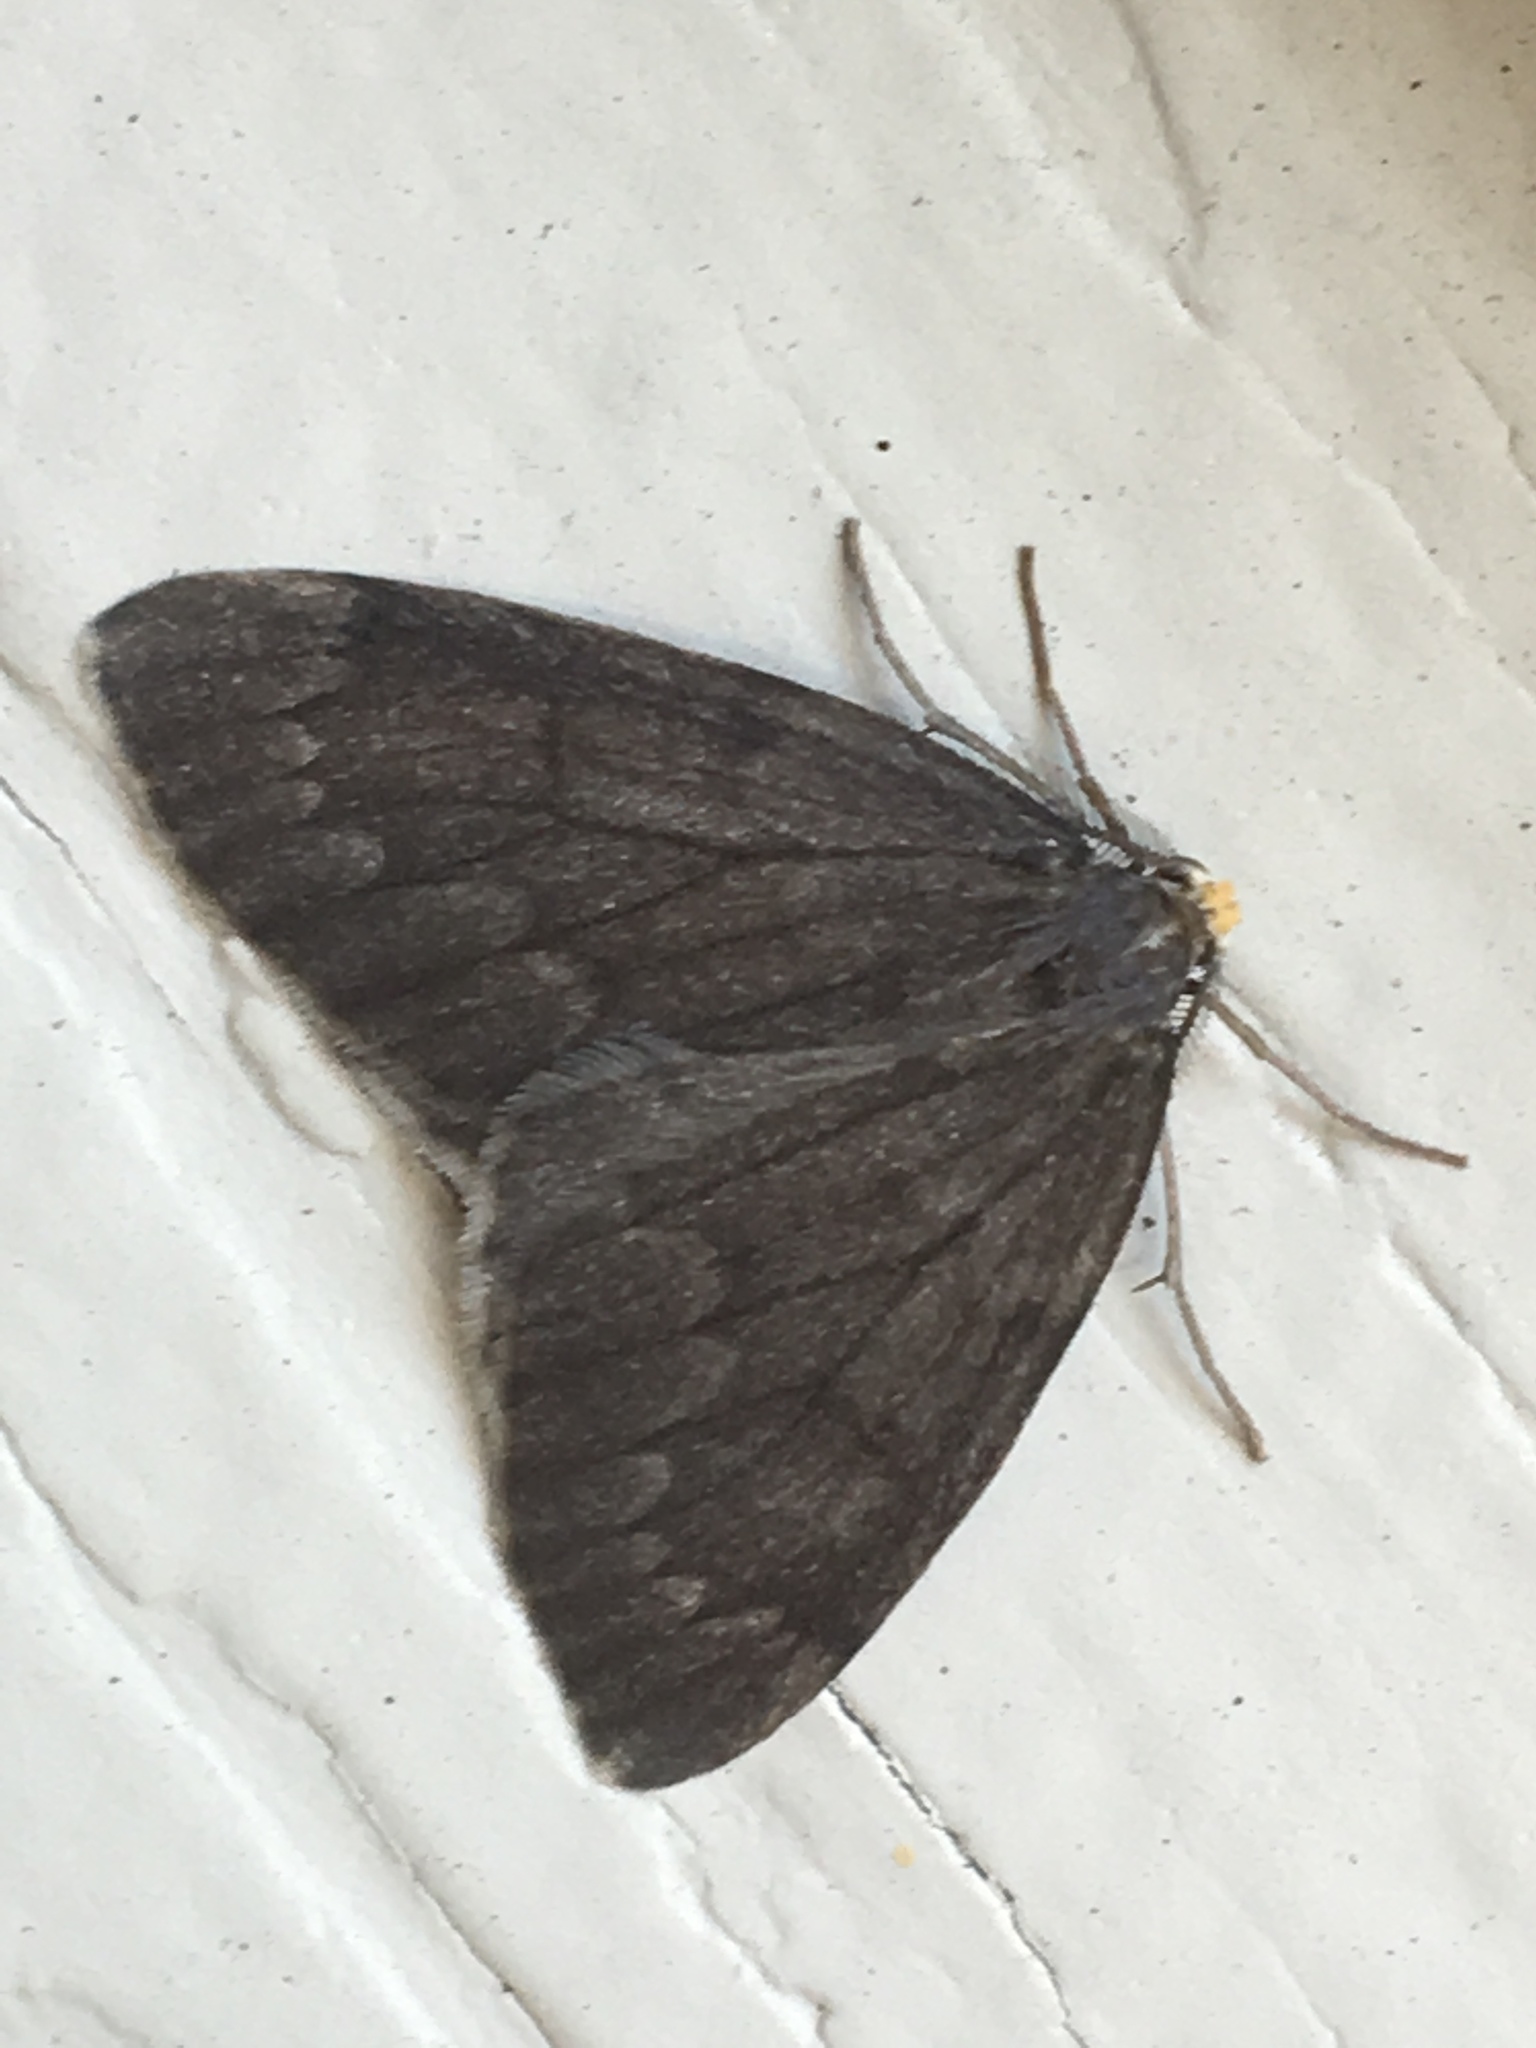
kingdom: Animalia
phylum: Arthropoda
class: Insecta
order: Lepidoptera
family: Geometridae
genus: Nepytia
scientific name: Nepytia canosaria
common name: False hemlock looper
